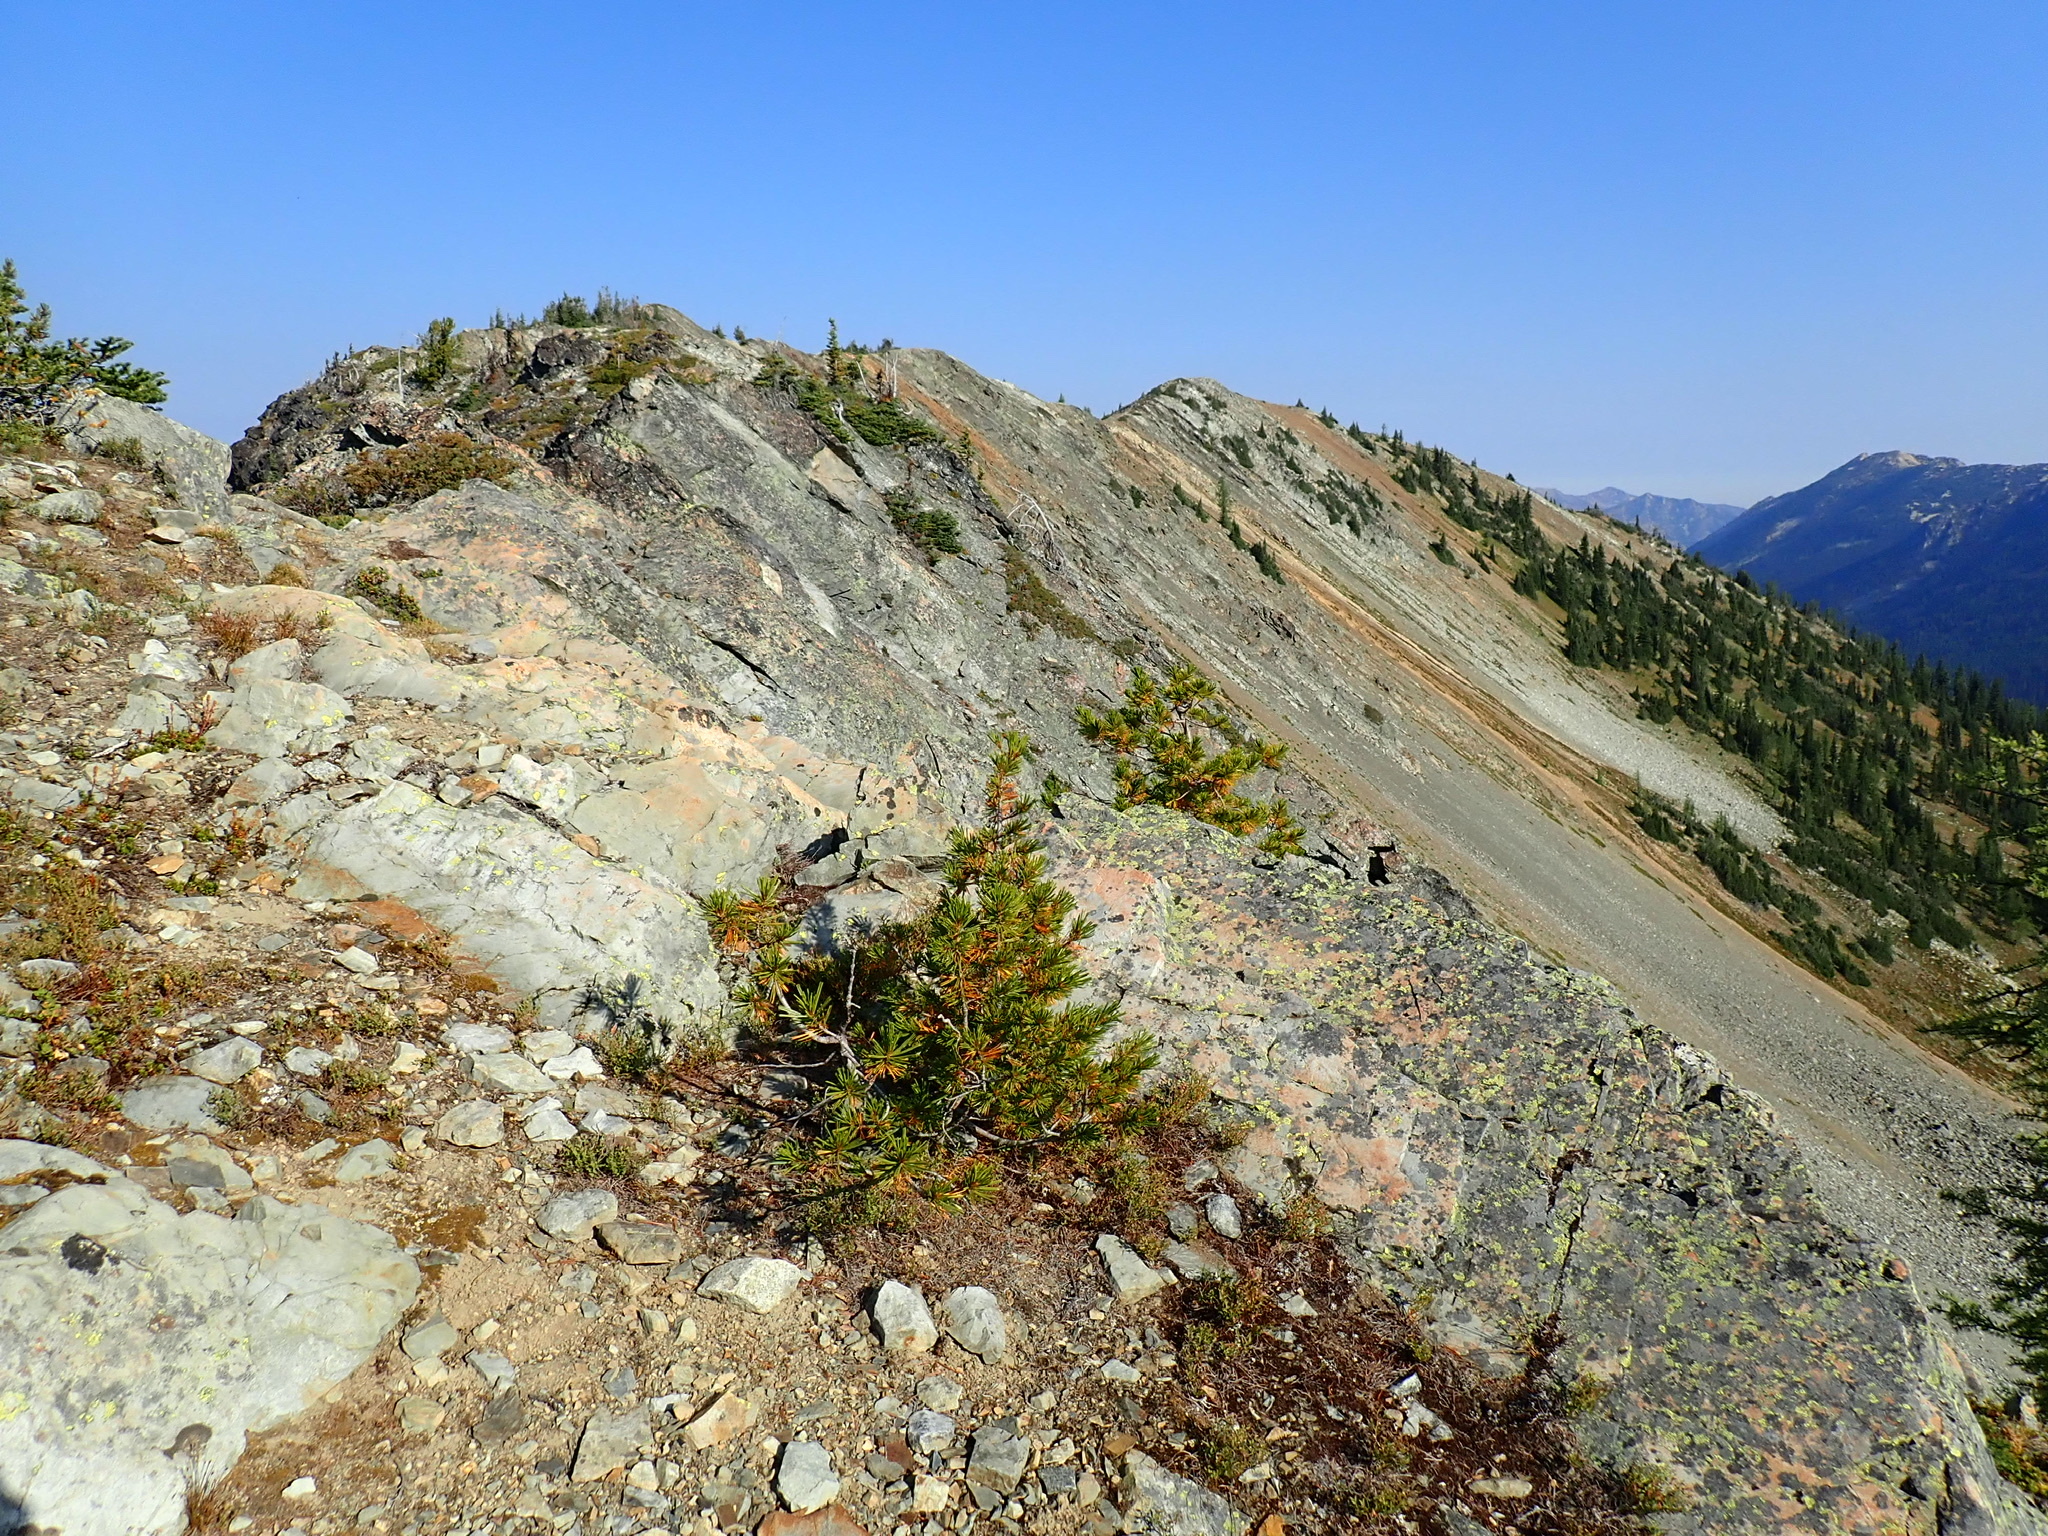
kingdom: Plantae
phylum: Tracheophyta
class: Pinopsida
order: Pinales
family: Pinaceae
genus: Pinus
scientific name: Pinus albicaulis
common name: Whitebark pine
